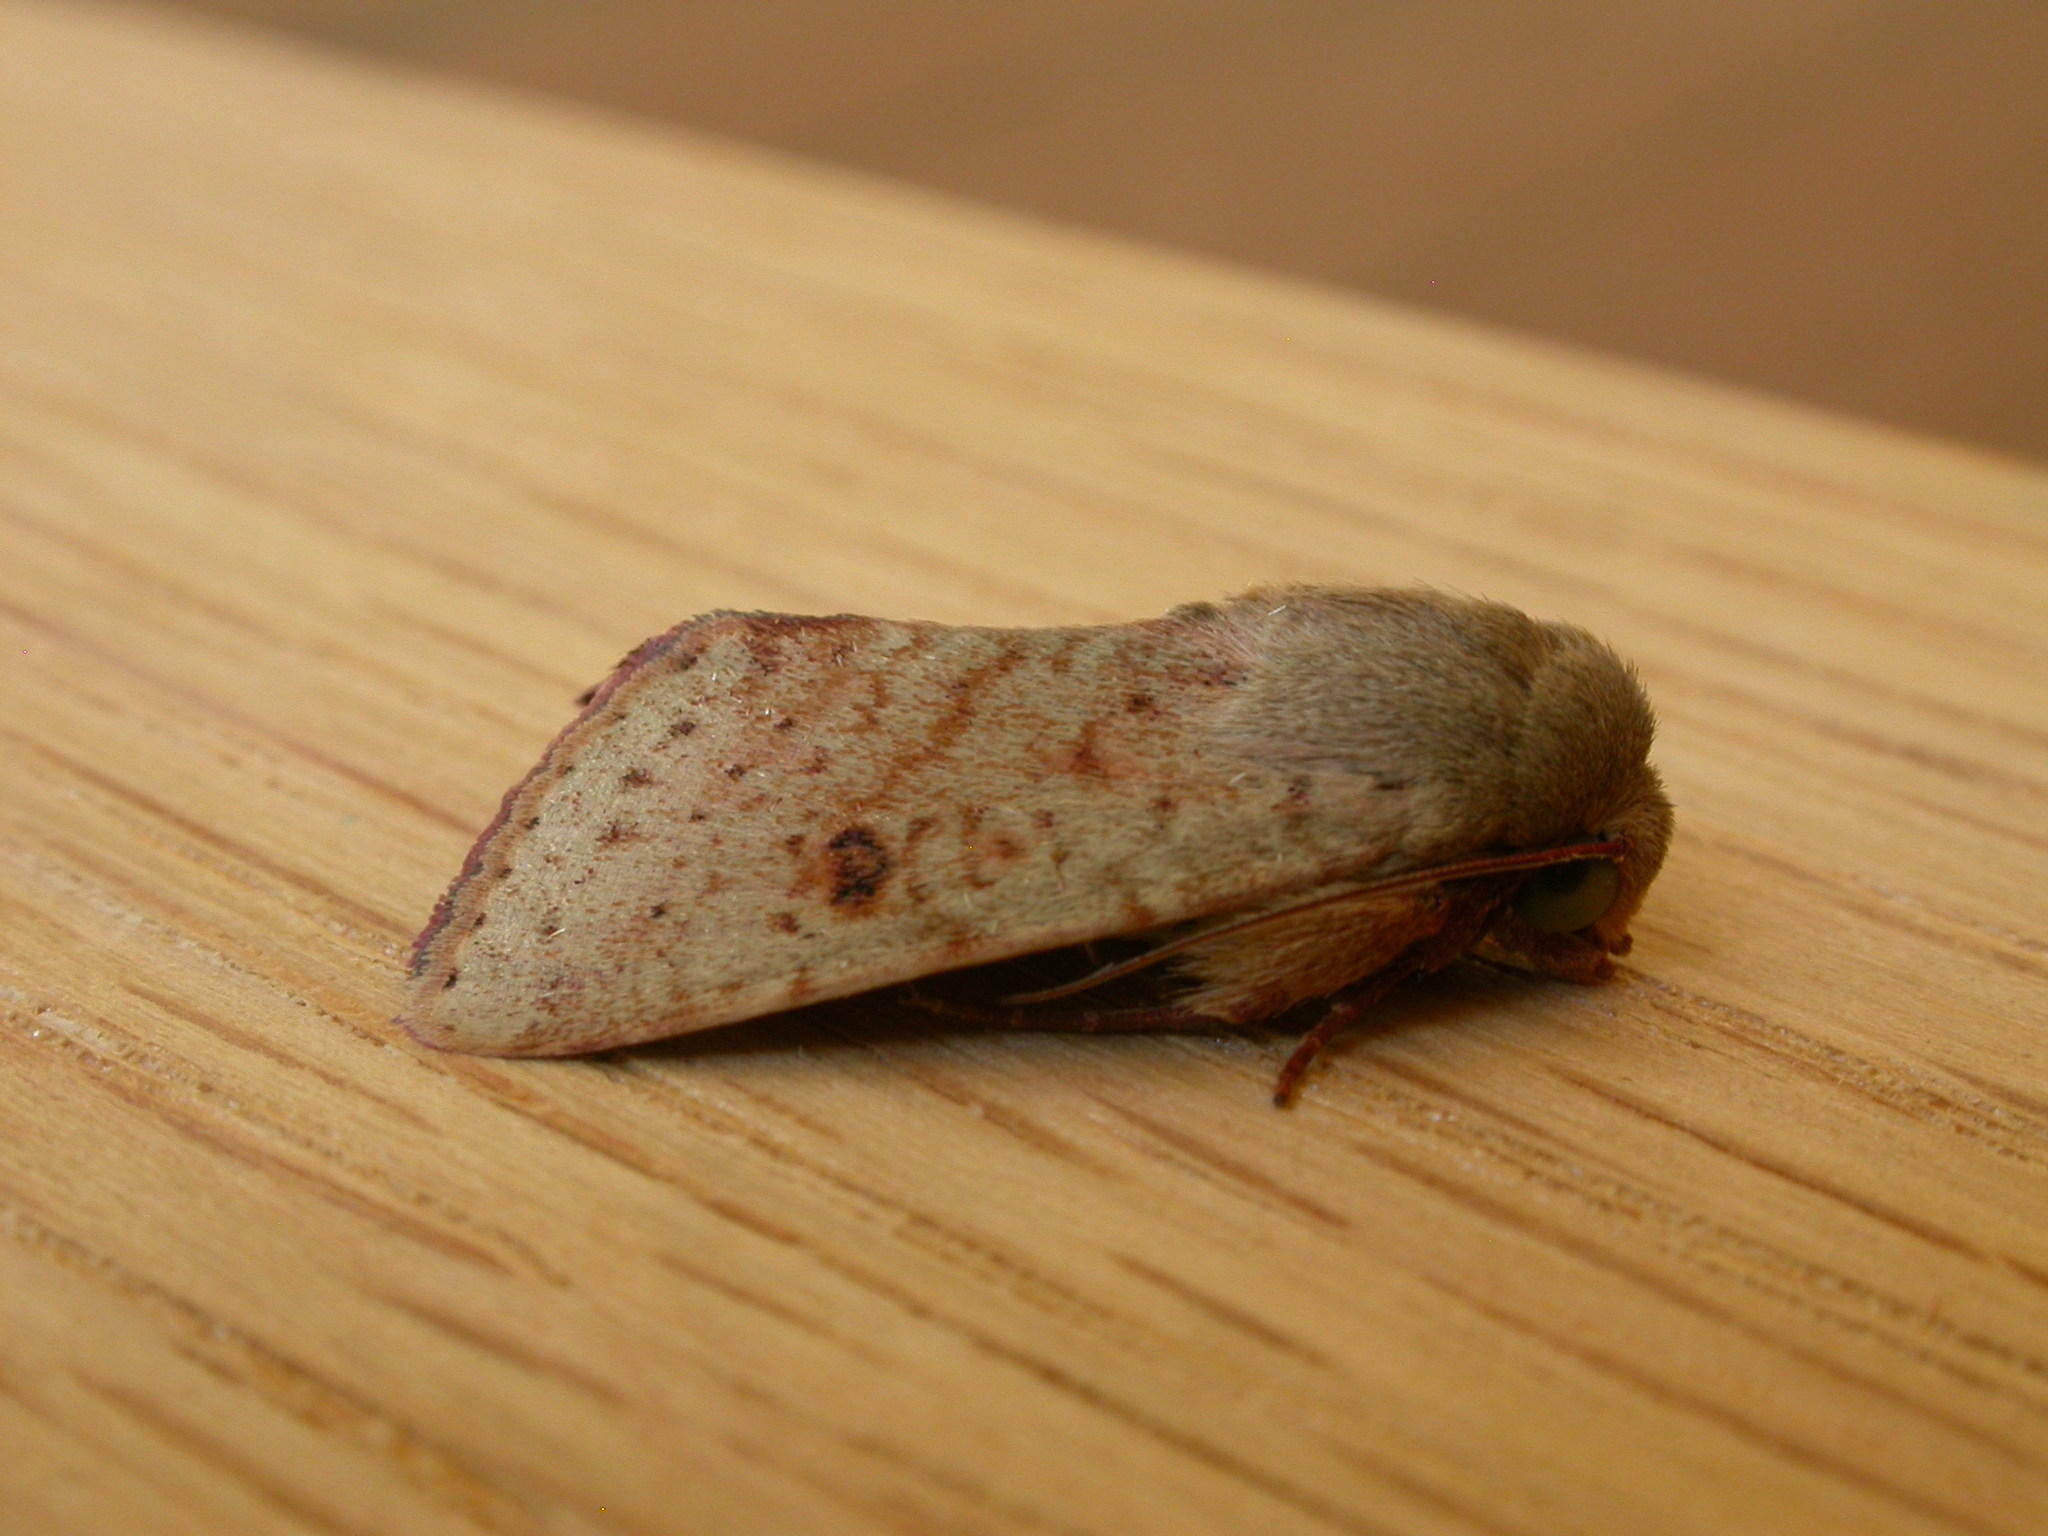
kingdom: Animalia
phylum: Arthropoda
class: Insecta
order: Lepidoptera
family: Noctuidae
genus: Australothis
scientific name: Australothis rubrescens
